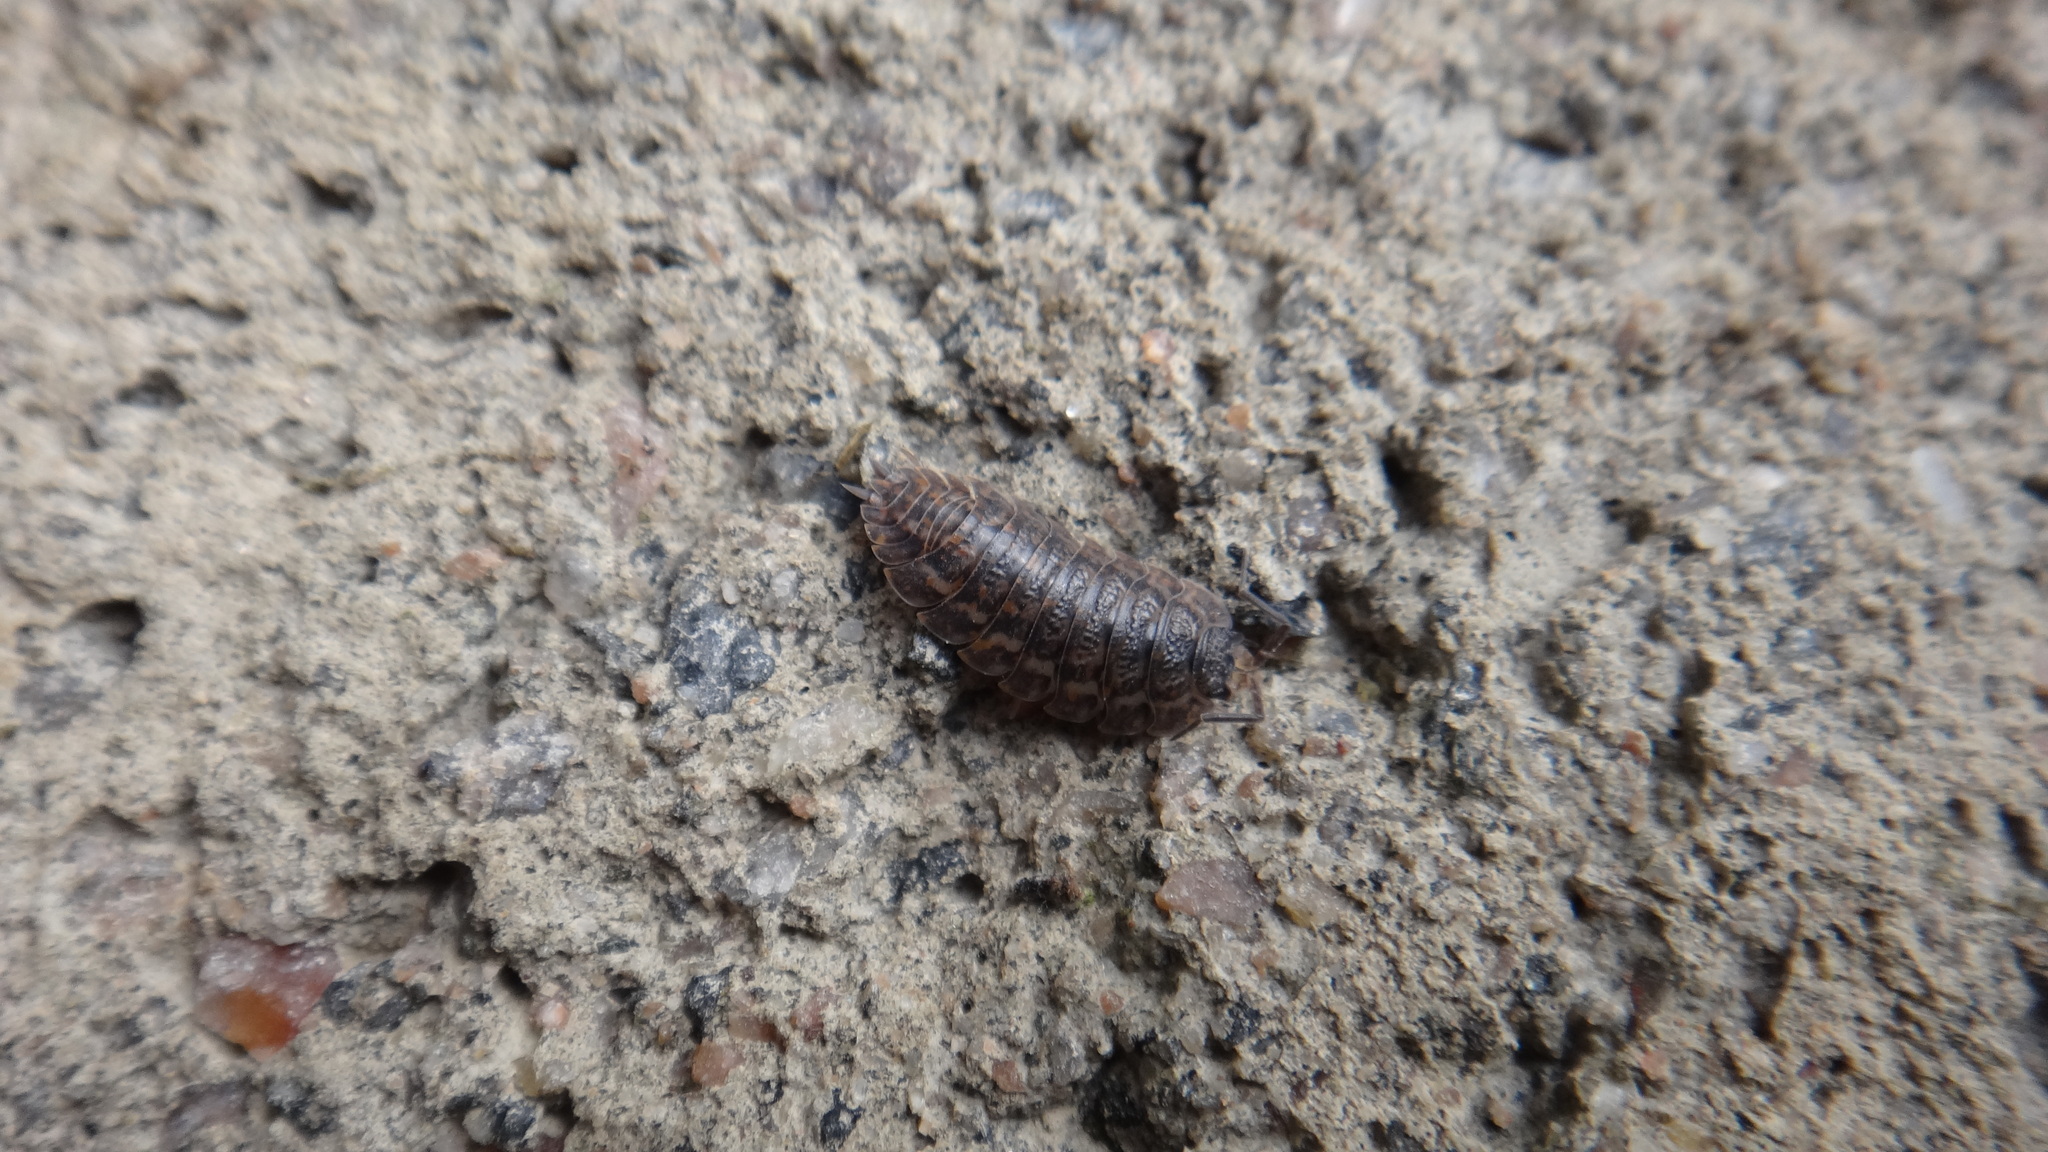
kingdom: Animalia
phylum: Arthropoda
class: Malacostraca
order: Isopoda
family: Trachelipodidae
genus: Trachelipus
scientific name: Trachelipus rathkii
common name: Isopod
